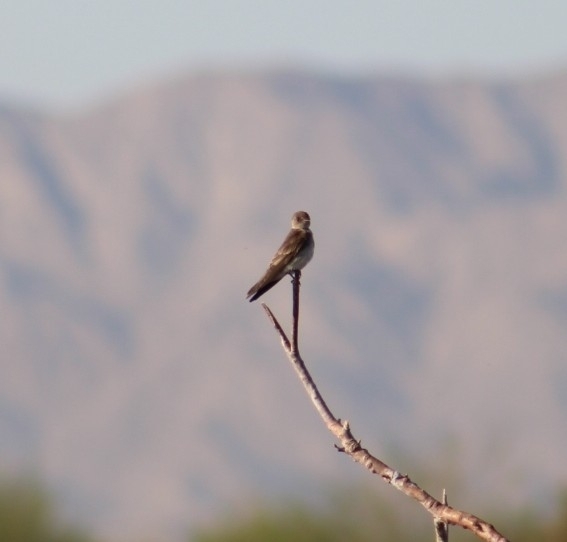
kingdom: Animalia
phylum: Chordata
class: Aves
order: Passeriformes
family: Hirundinidae
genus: Stelgidopteryx
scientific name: Stelgidopteryx serripennis
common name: Northern rough-winged swallow
